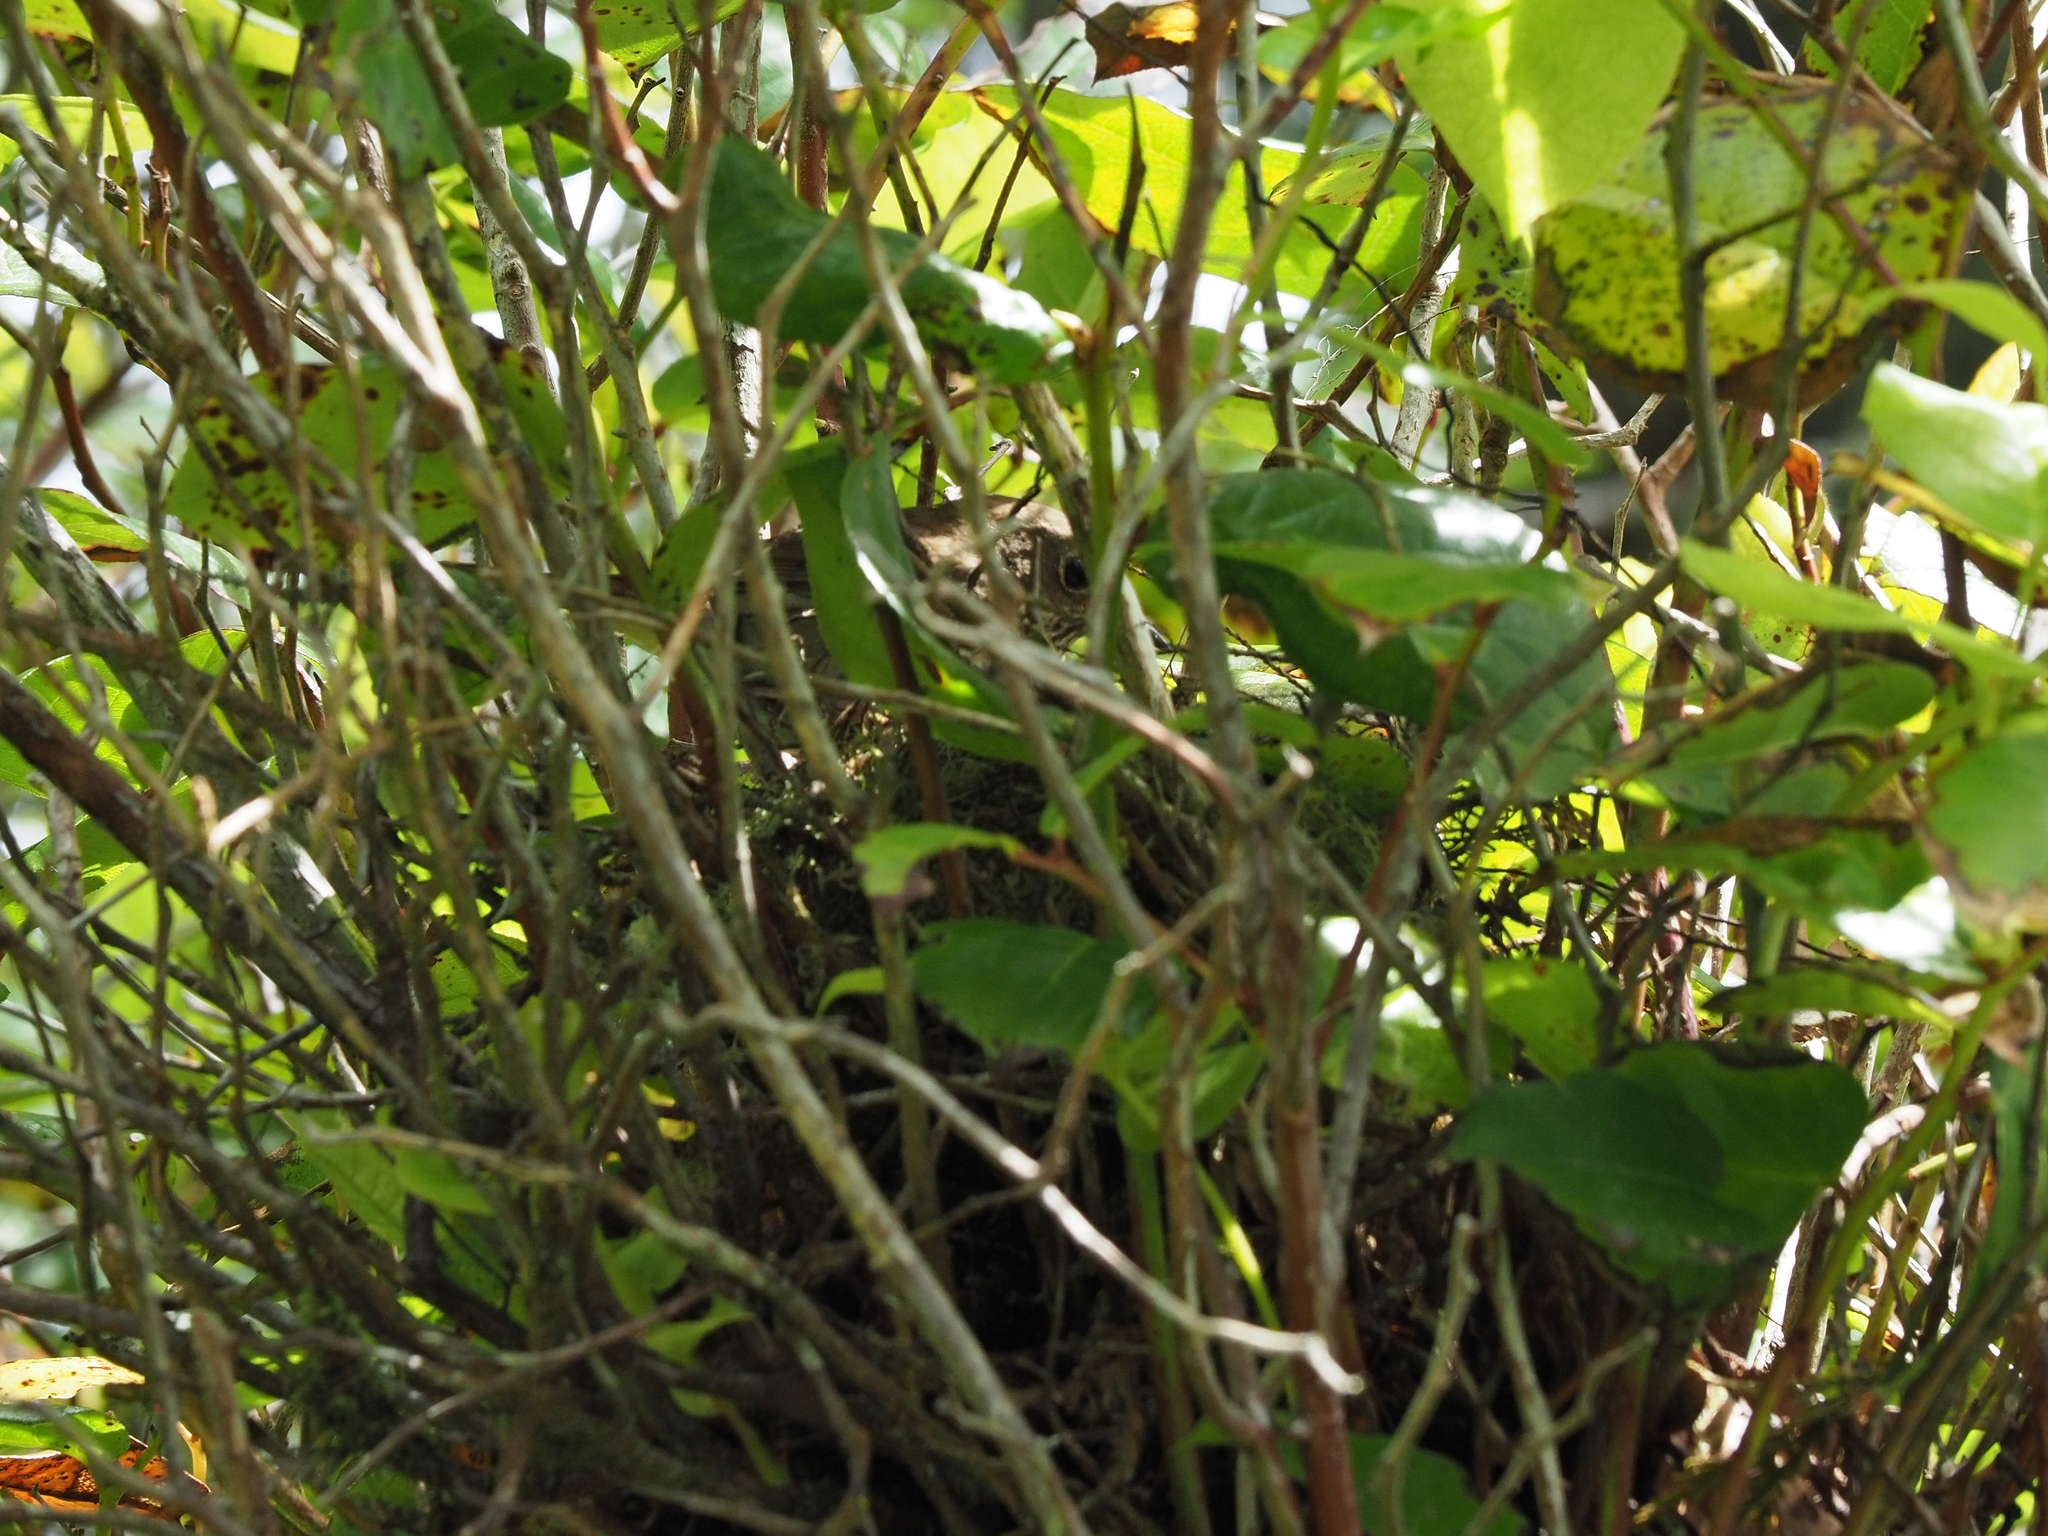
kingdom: Animalia
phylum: Chordata
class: Aves
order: Passeriformes
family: Turdidae
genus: Catharus
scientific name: Catharus ustulatus
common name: Swainson's thrush
